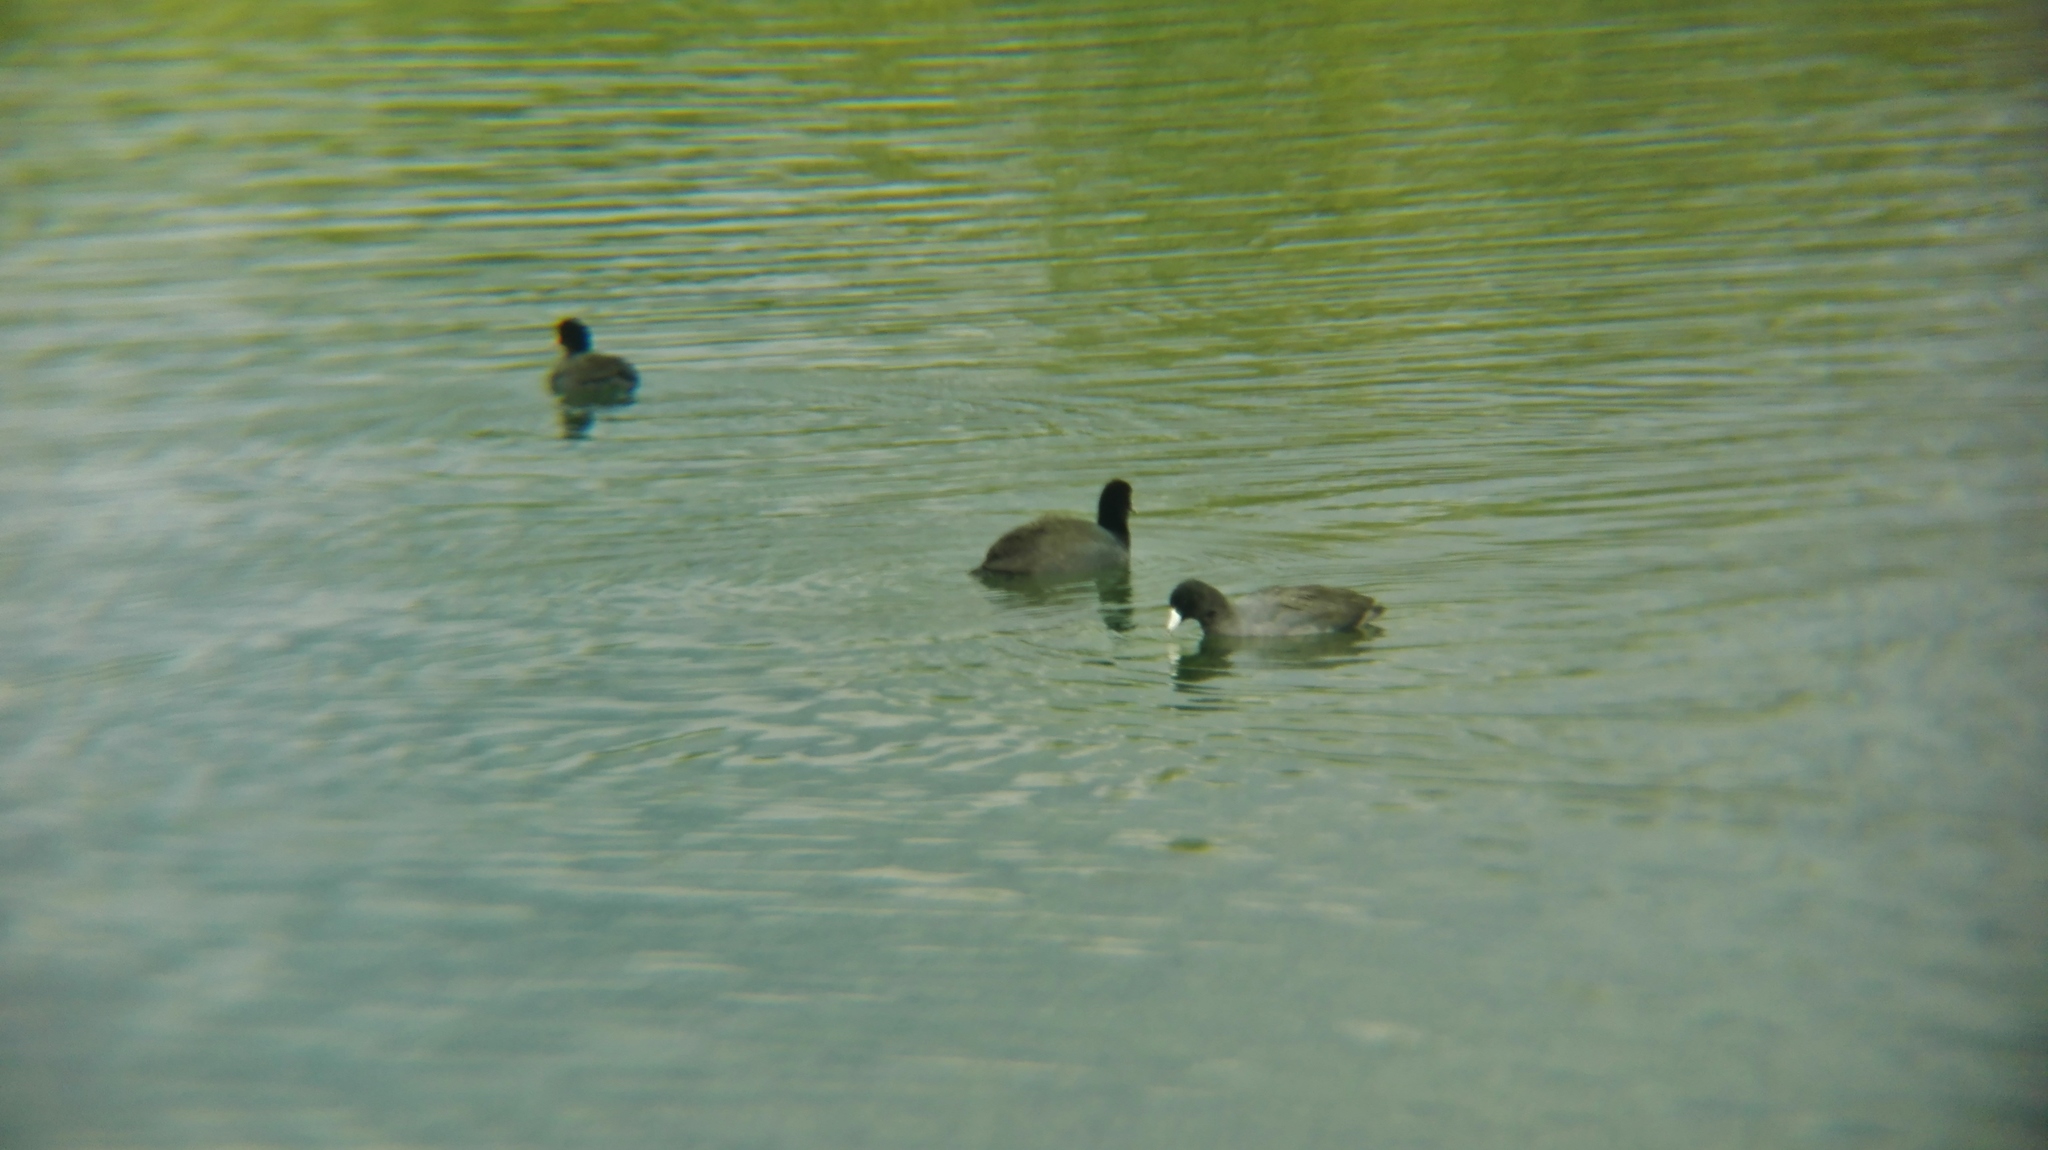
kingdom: Animalia
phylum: Chordata
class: Aves
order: Gruiformes
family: Rallidae
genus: Fulica
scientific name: Fulica americana
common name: American coot
